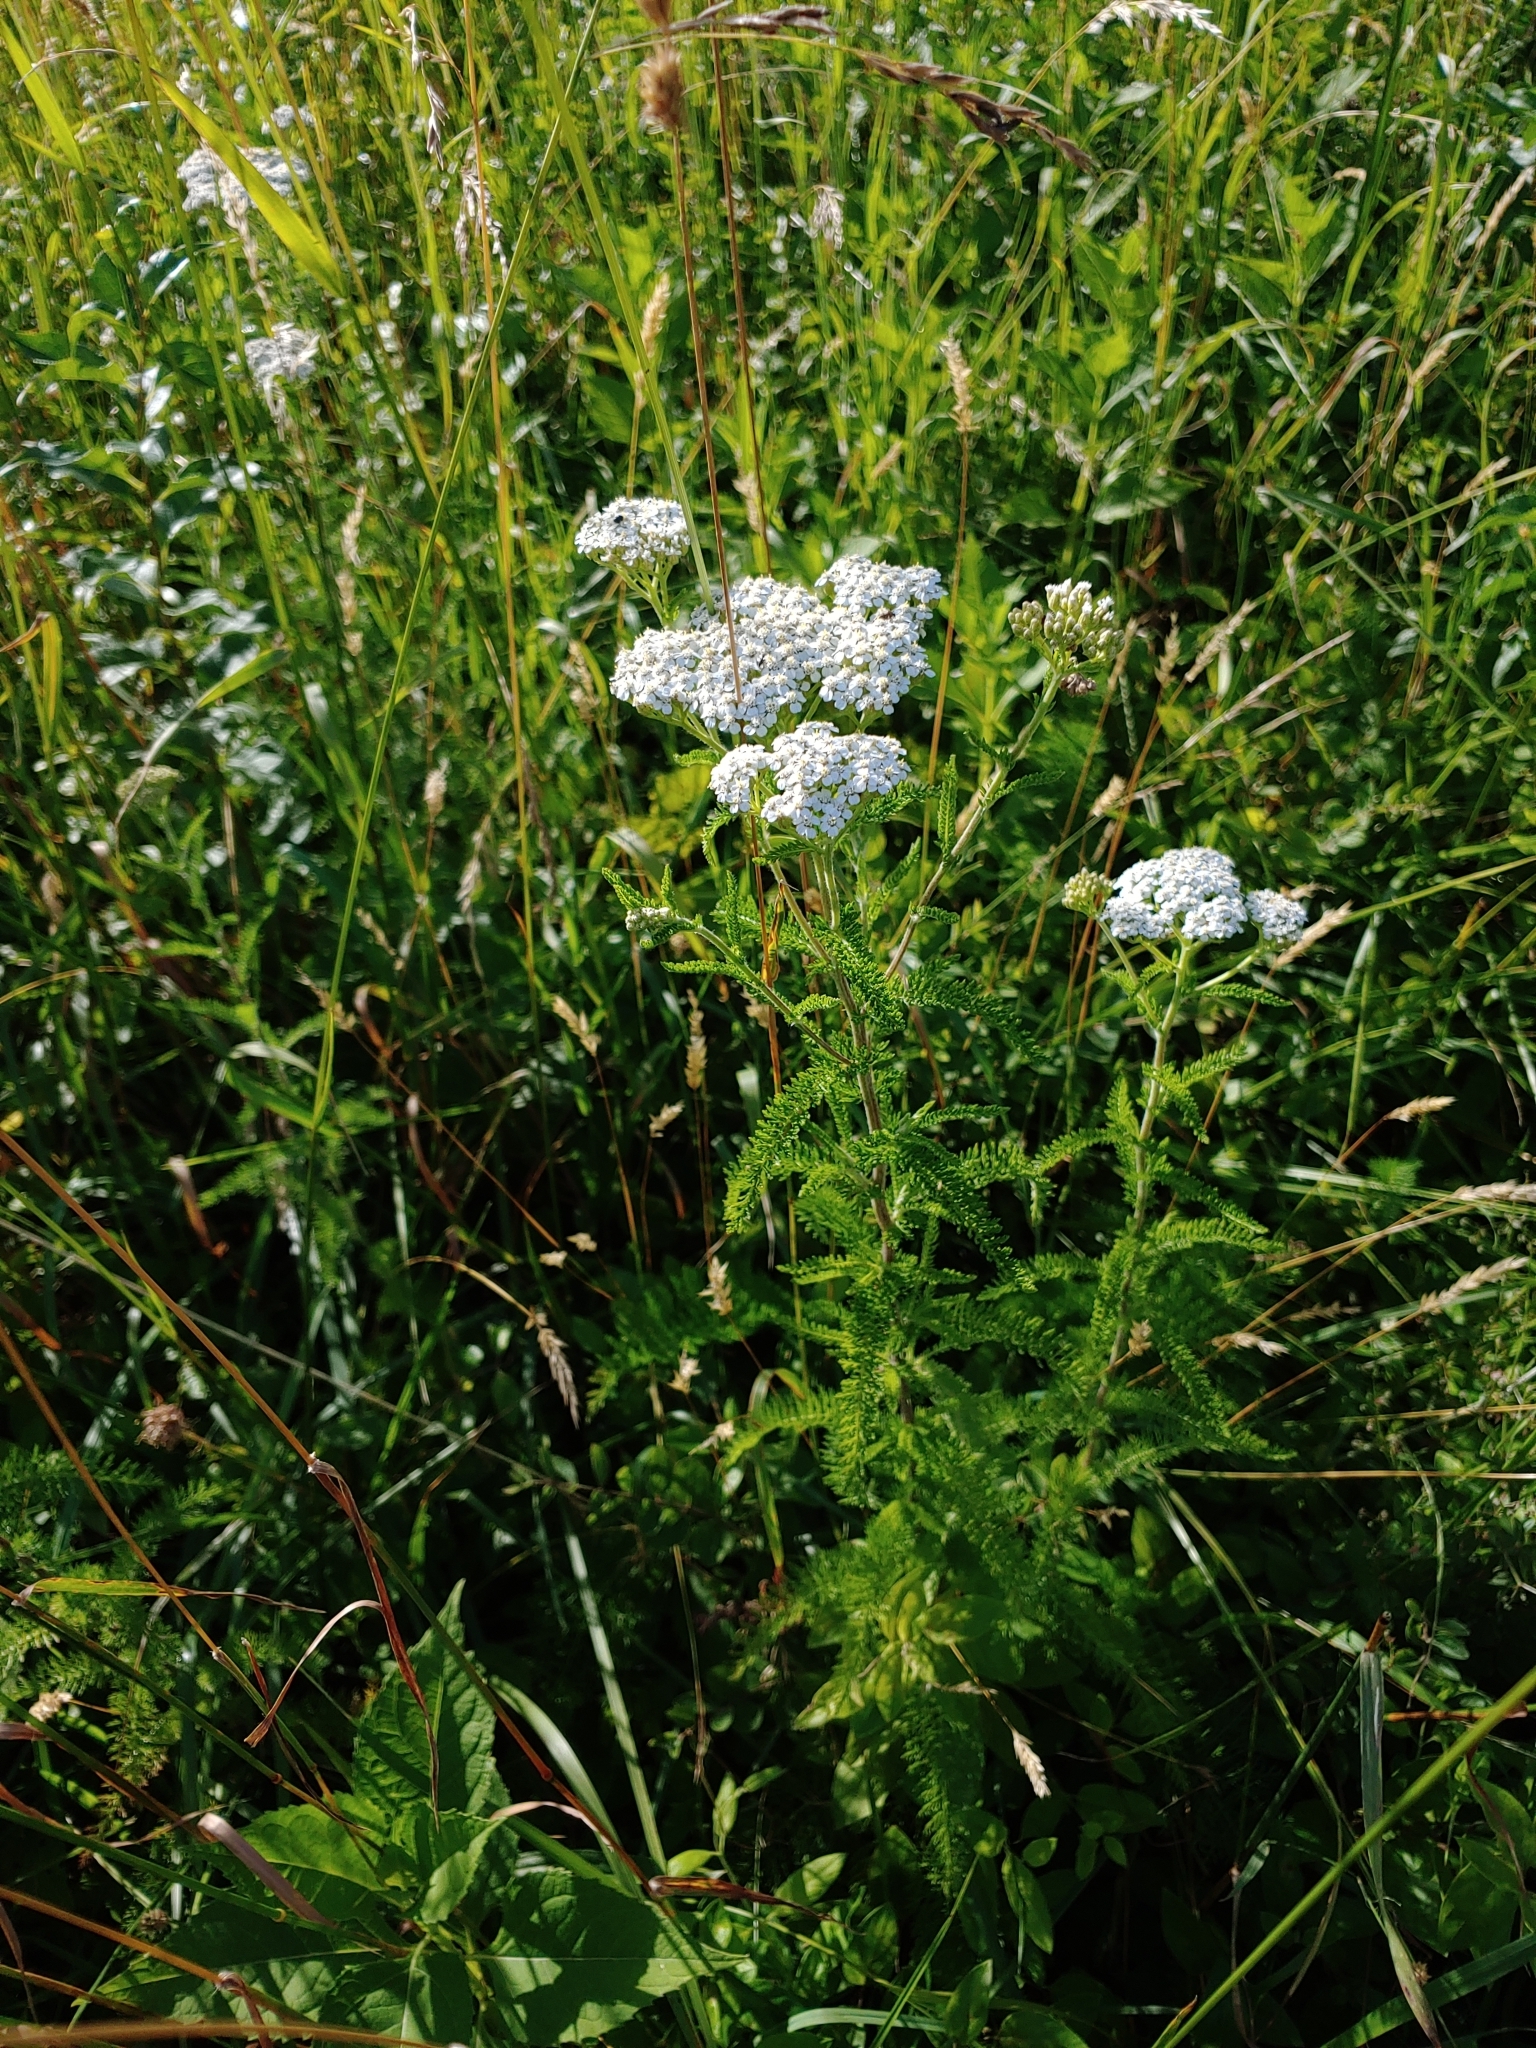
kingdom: Plantae
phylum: Tracheophyta
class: Magnoliopsida
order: Asterales
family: Asteraceae
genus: Achillea
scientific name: Achillea millefolium
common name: Yarrow
